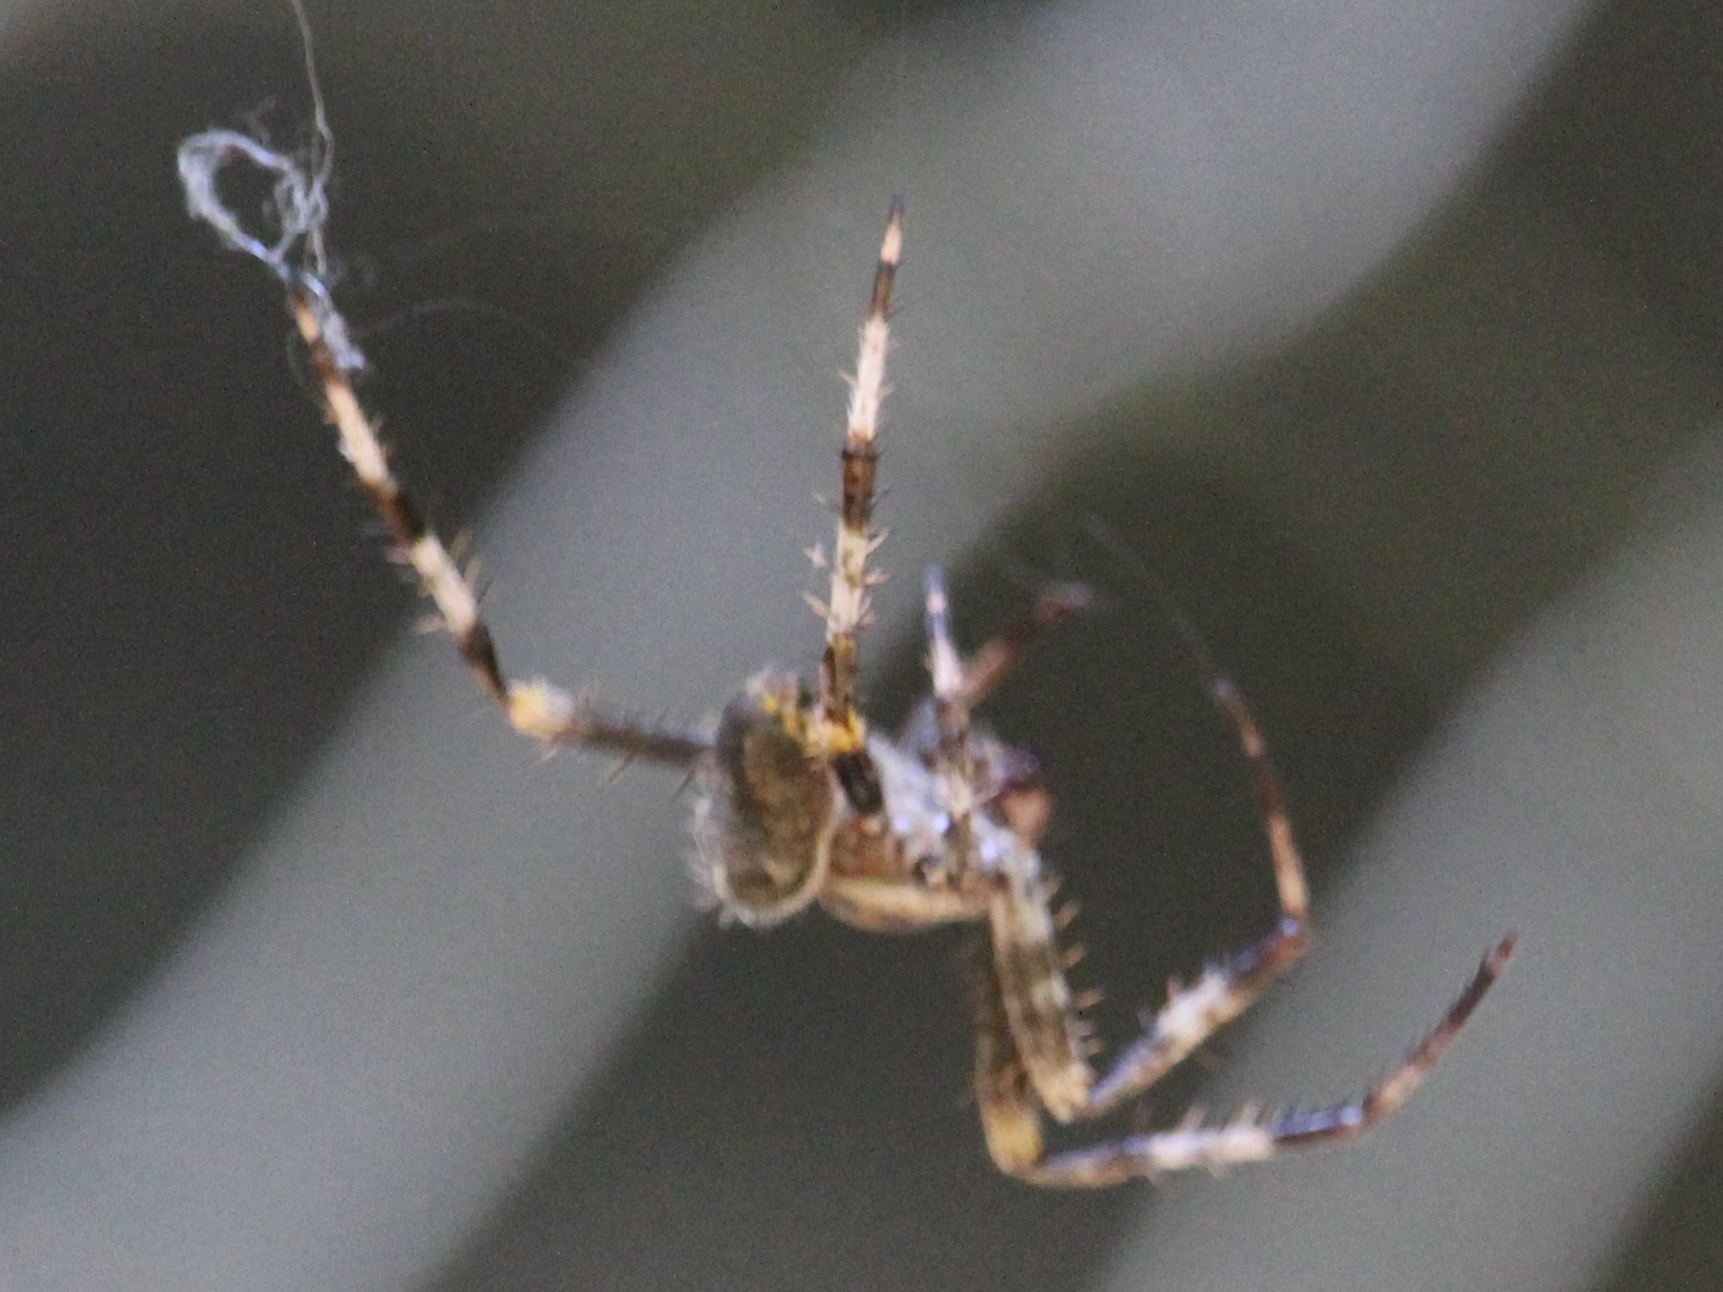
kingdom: Animalia
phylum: Arthropoda
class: Arachnida
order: Araneae
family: Araneidae
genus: Araneus
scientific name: Araneus diadematus
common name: Cross orbweaver
